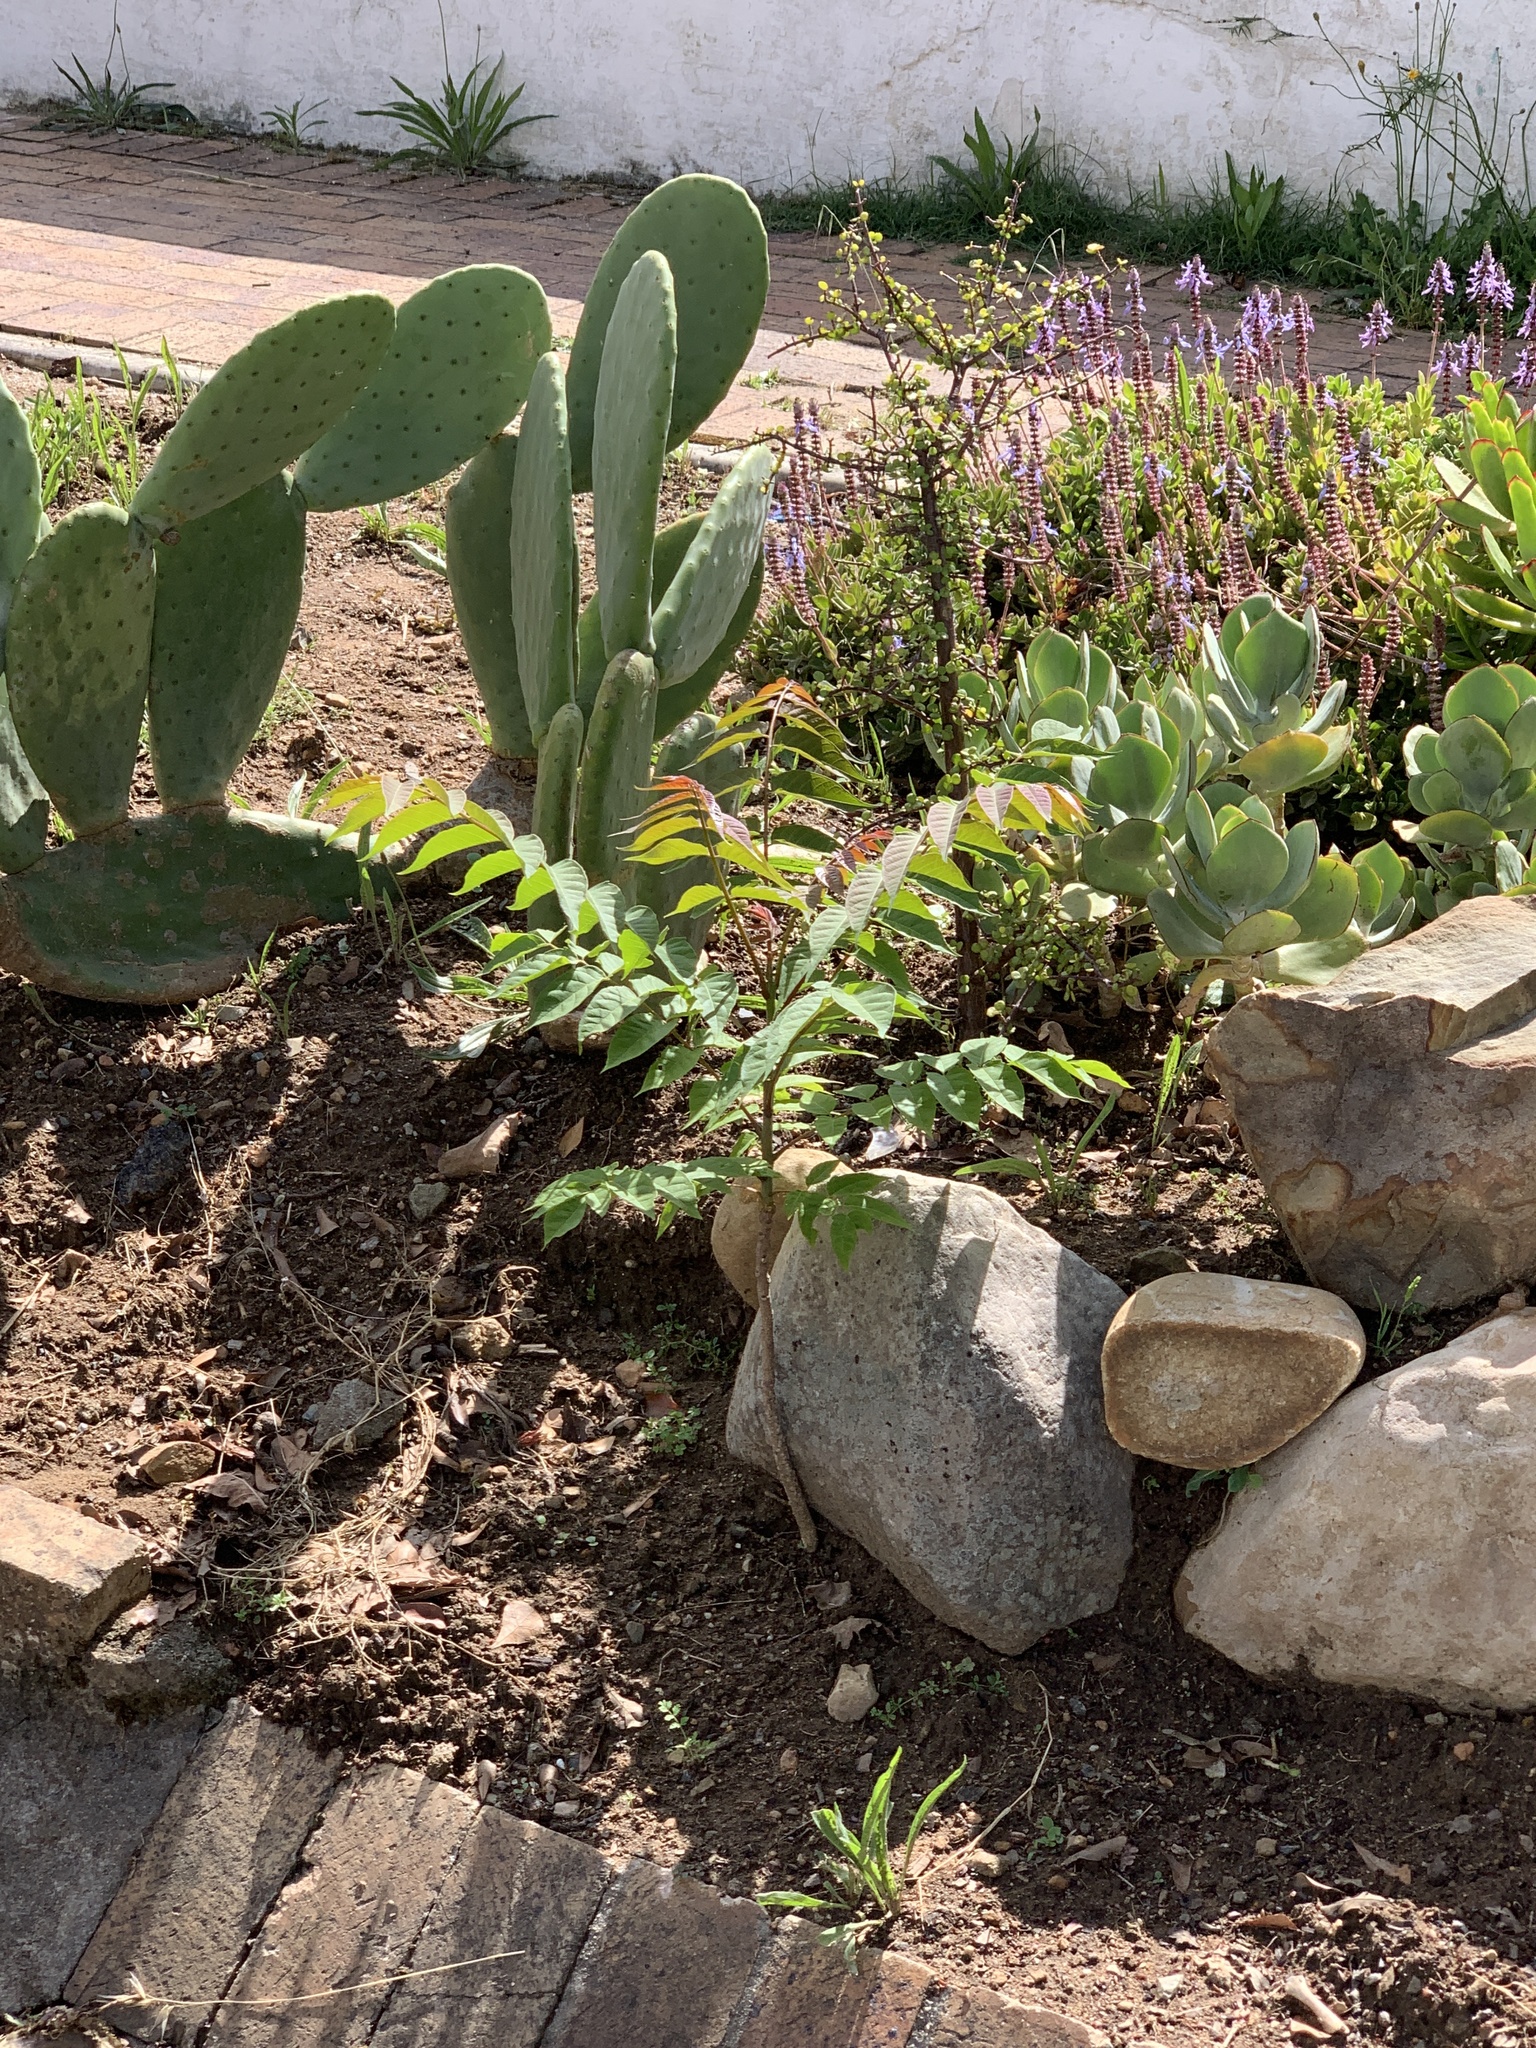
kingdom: Plantae
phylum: Tracheophyta
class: Magnoliopsida
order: Sapindales
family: Simaroubaceae
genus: Ailanthus
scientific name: Ailanthus altissima
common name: Tree-of-heaven
